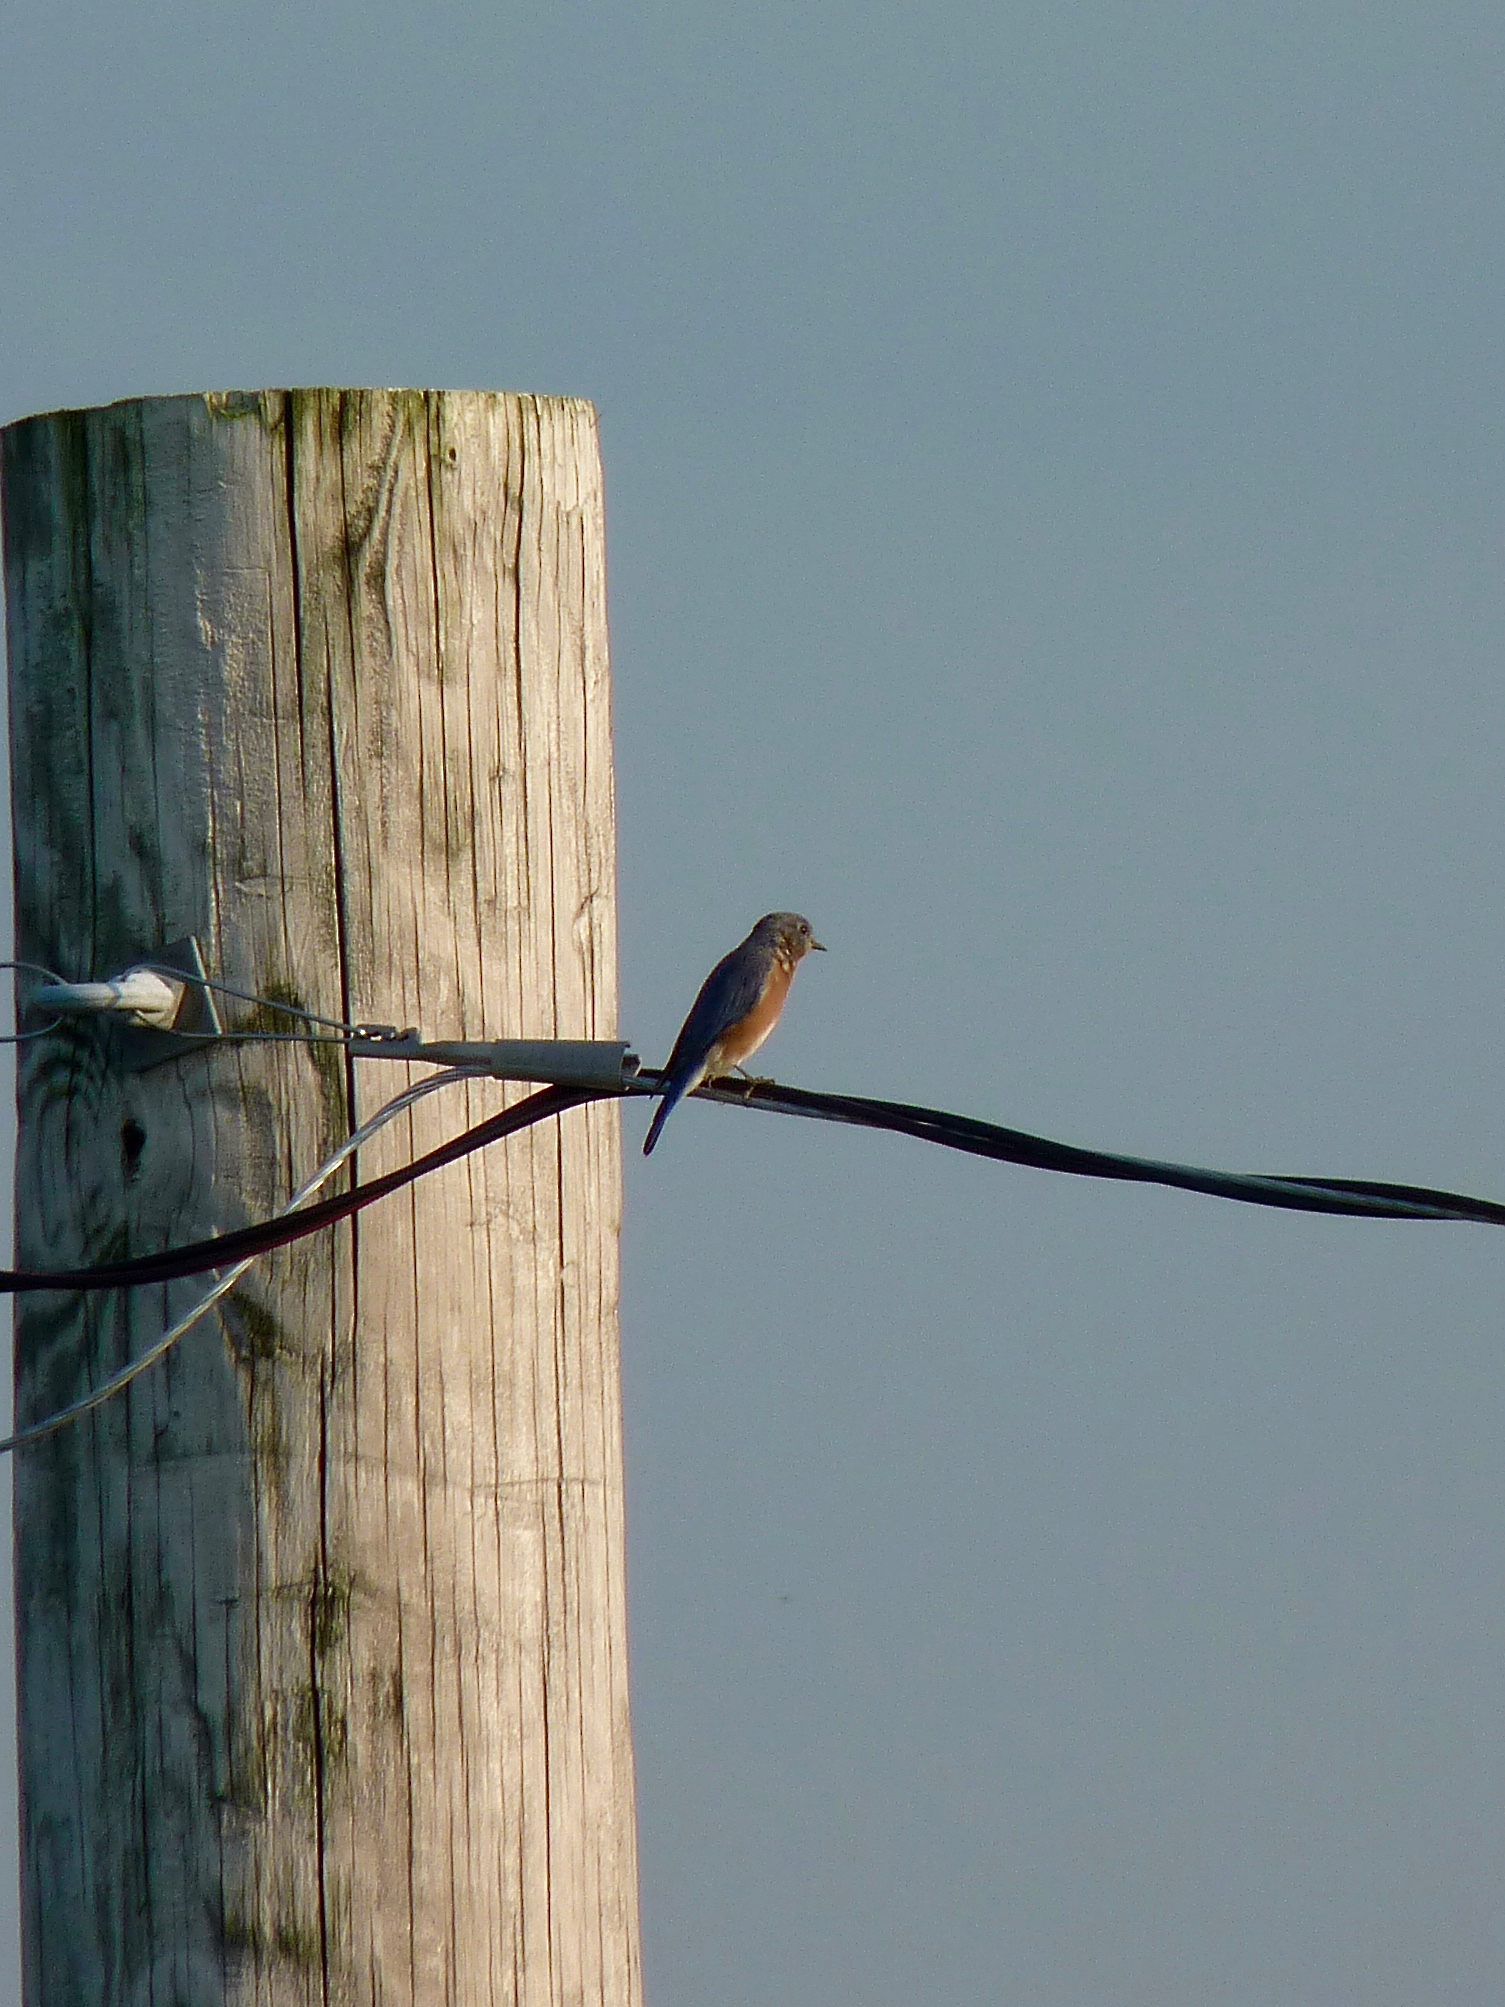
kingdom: Animalia
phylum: Chordata
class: Aves
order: Passeriformes
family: Turdidae
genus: Sialia
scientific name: Sialia sialis
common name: Eastern bluebird
